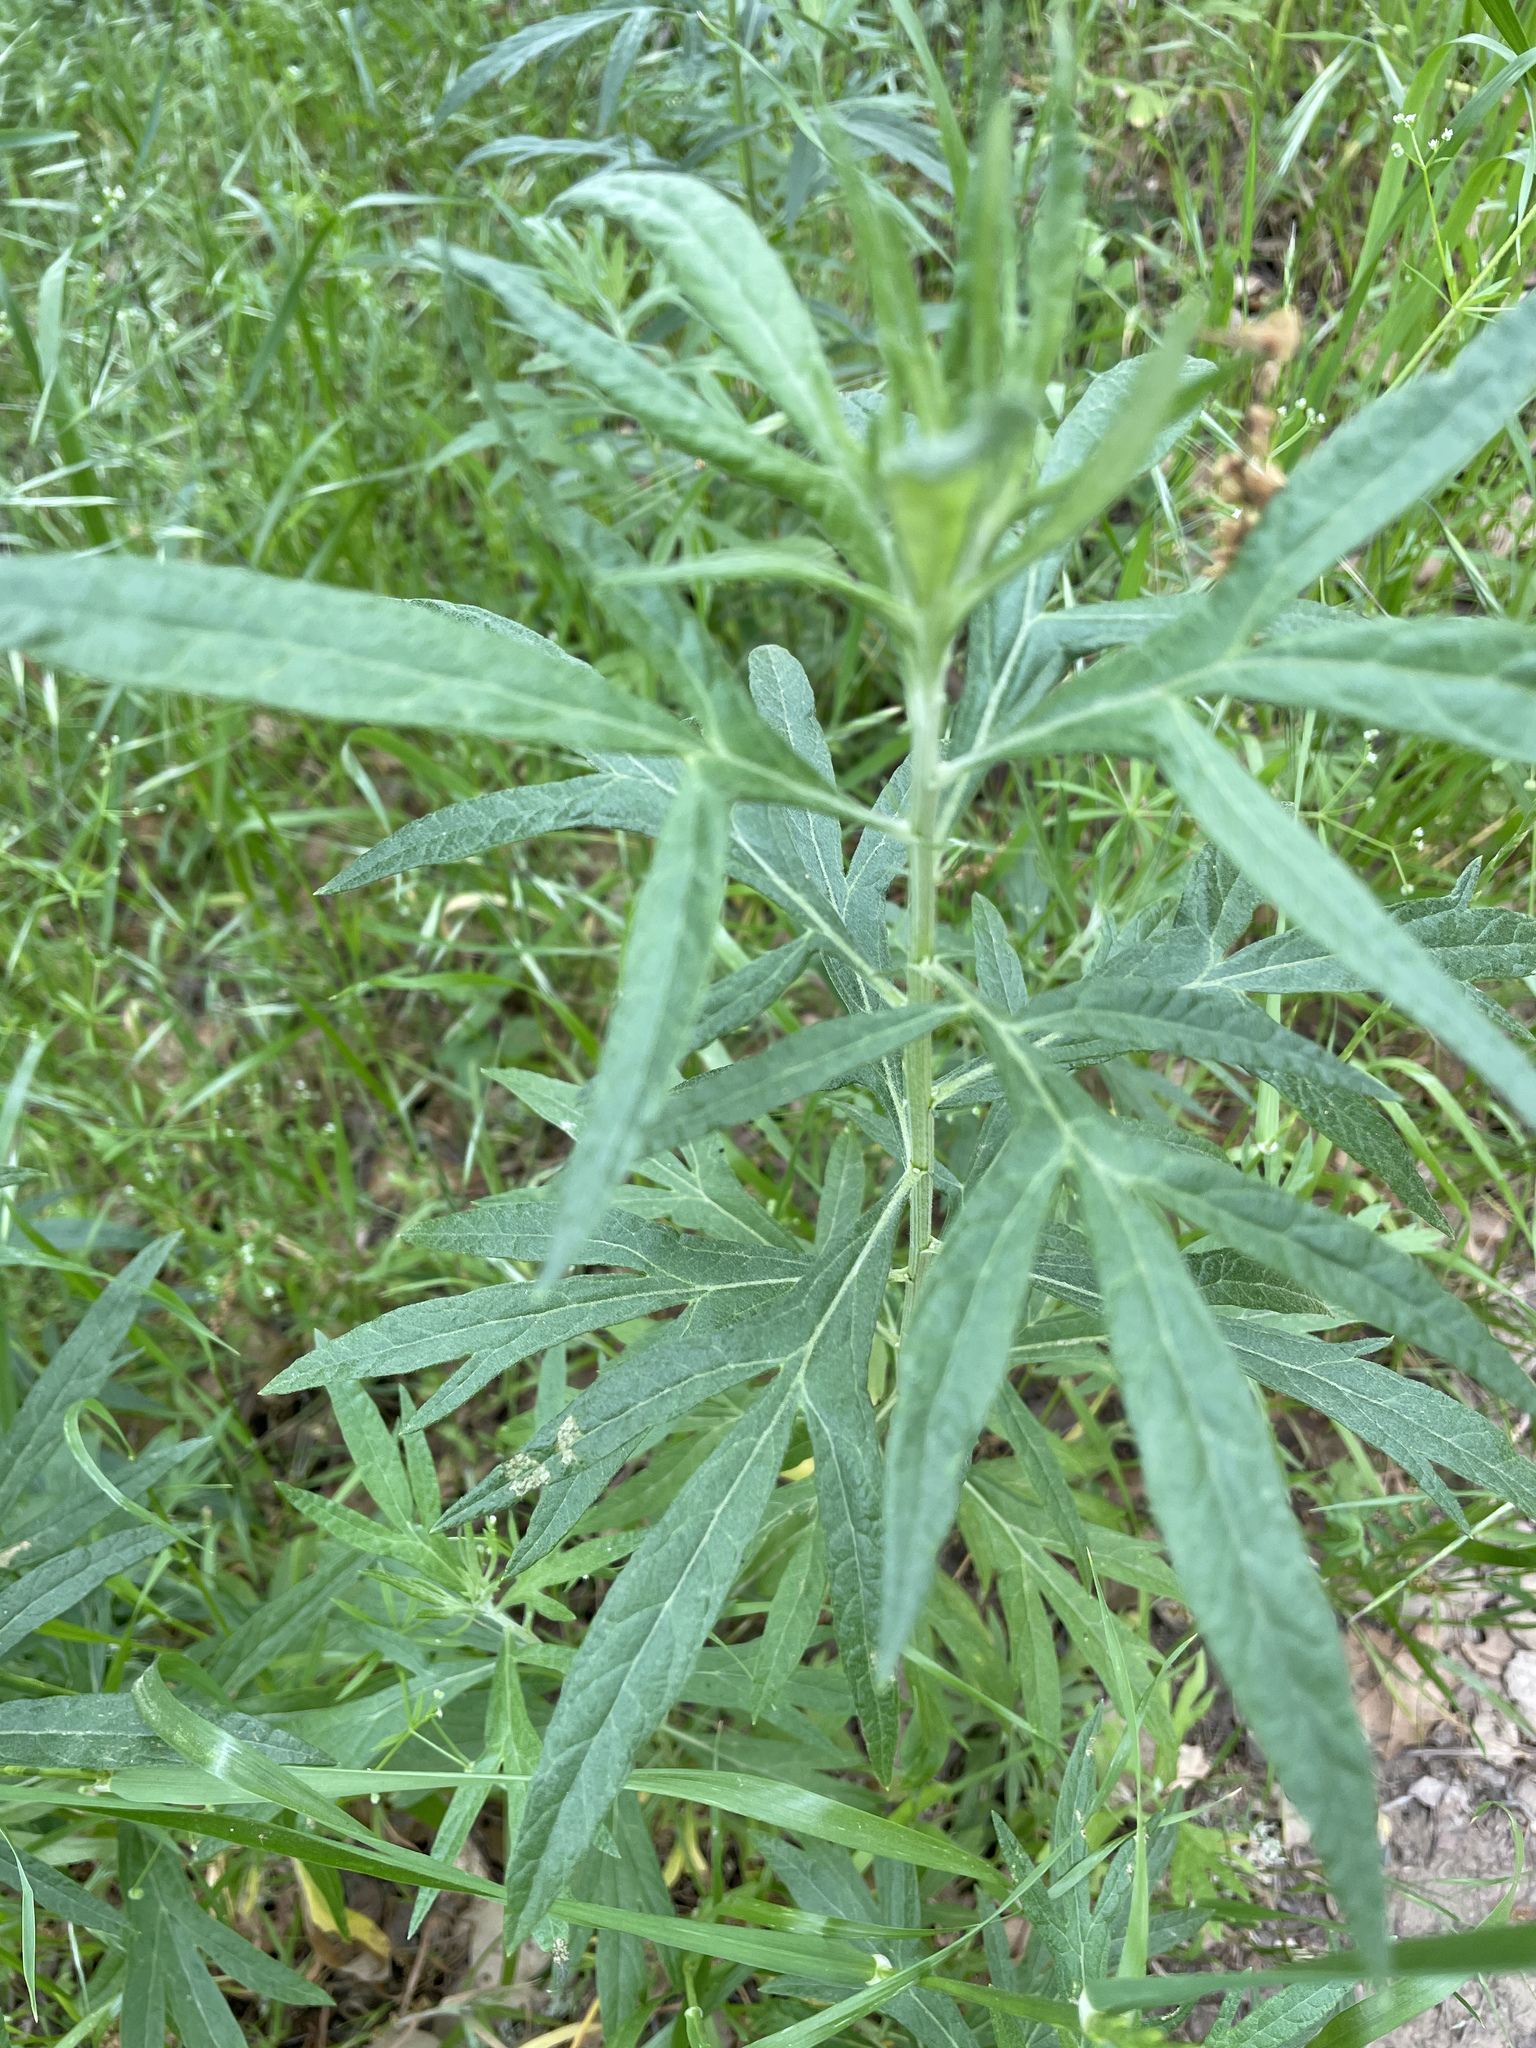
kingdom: Plantae
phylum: Tracheophyta
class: Magnoliopsida
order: Asterales
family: Asteraceae
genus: Artemisia
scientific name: Artemisia douglasiana
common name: Northwest mugwort
